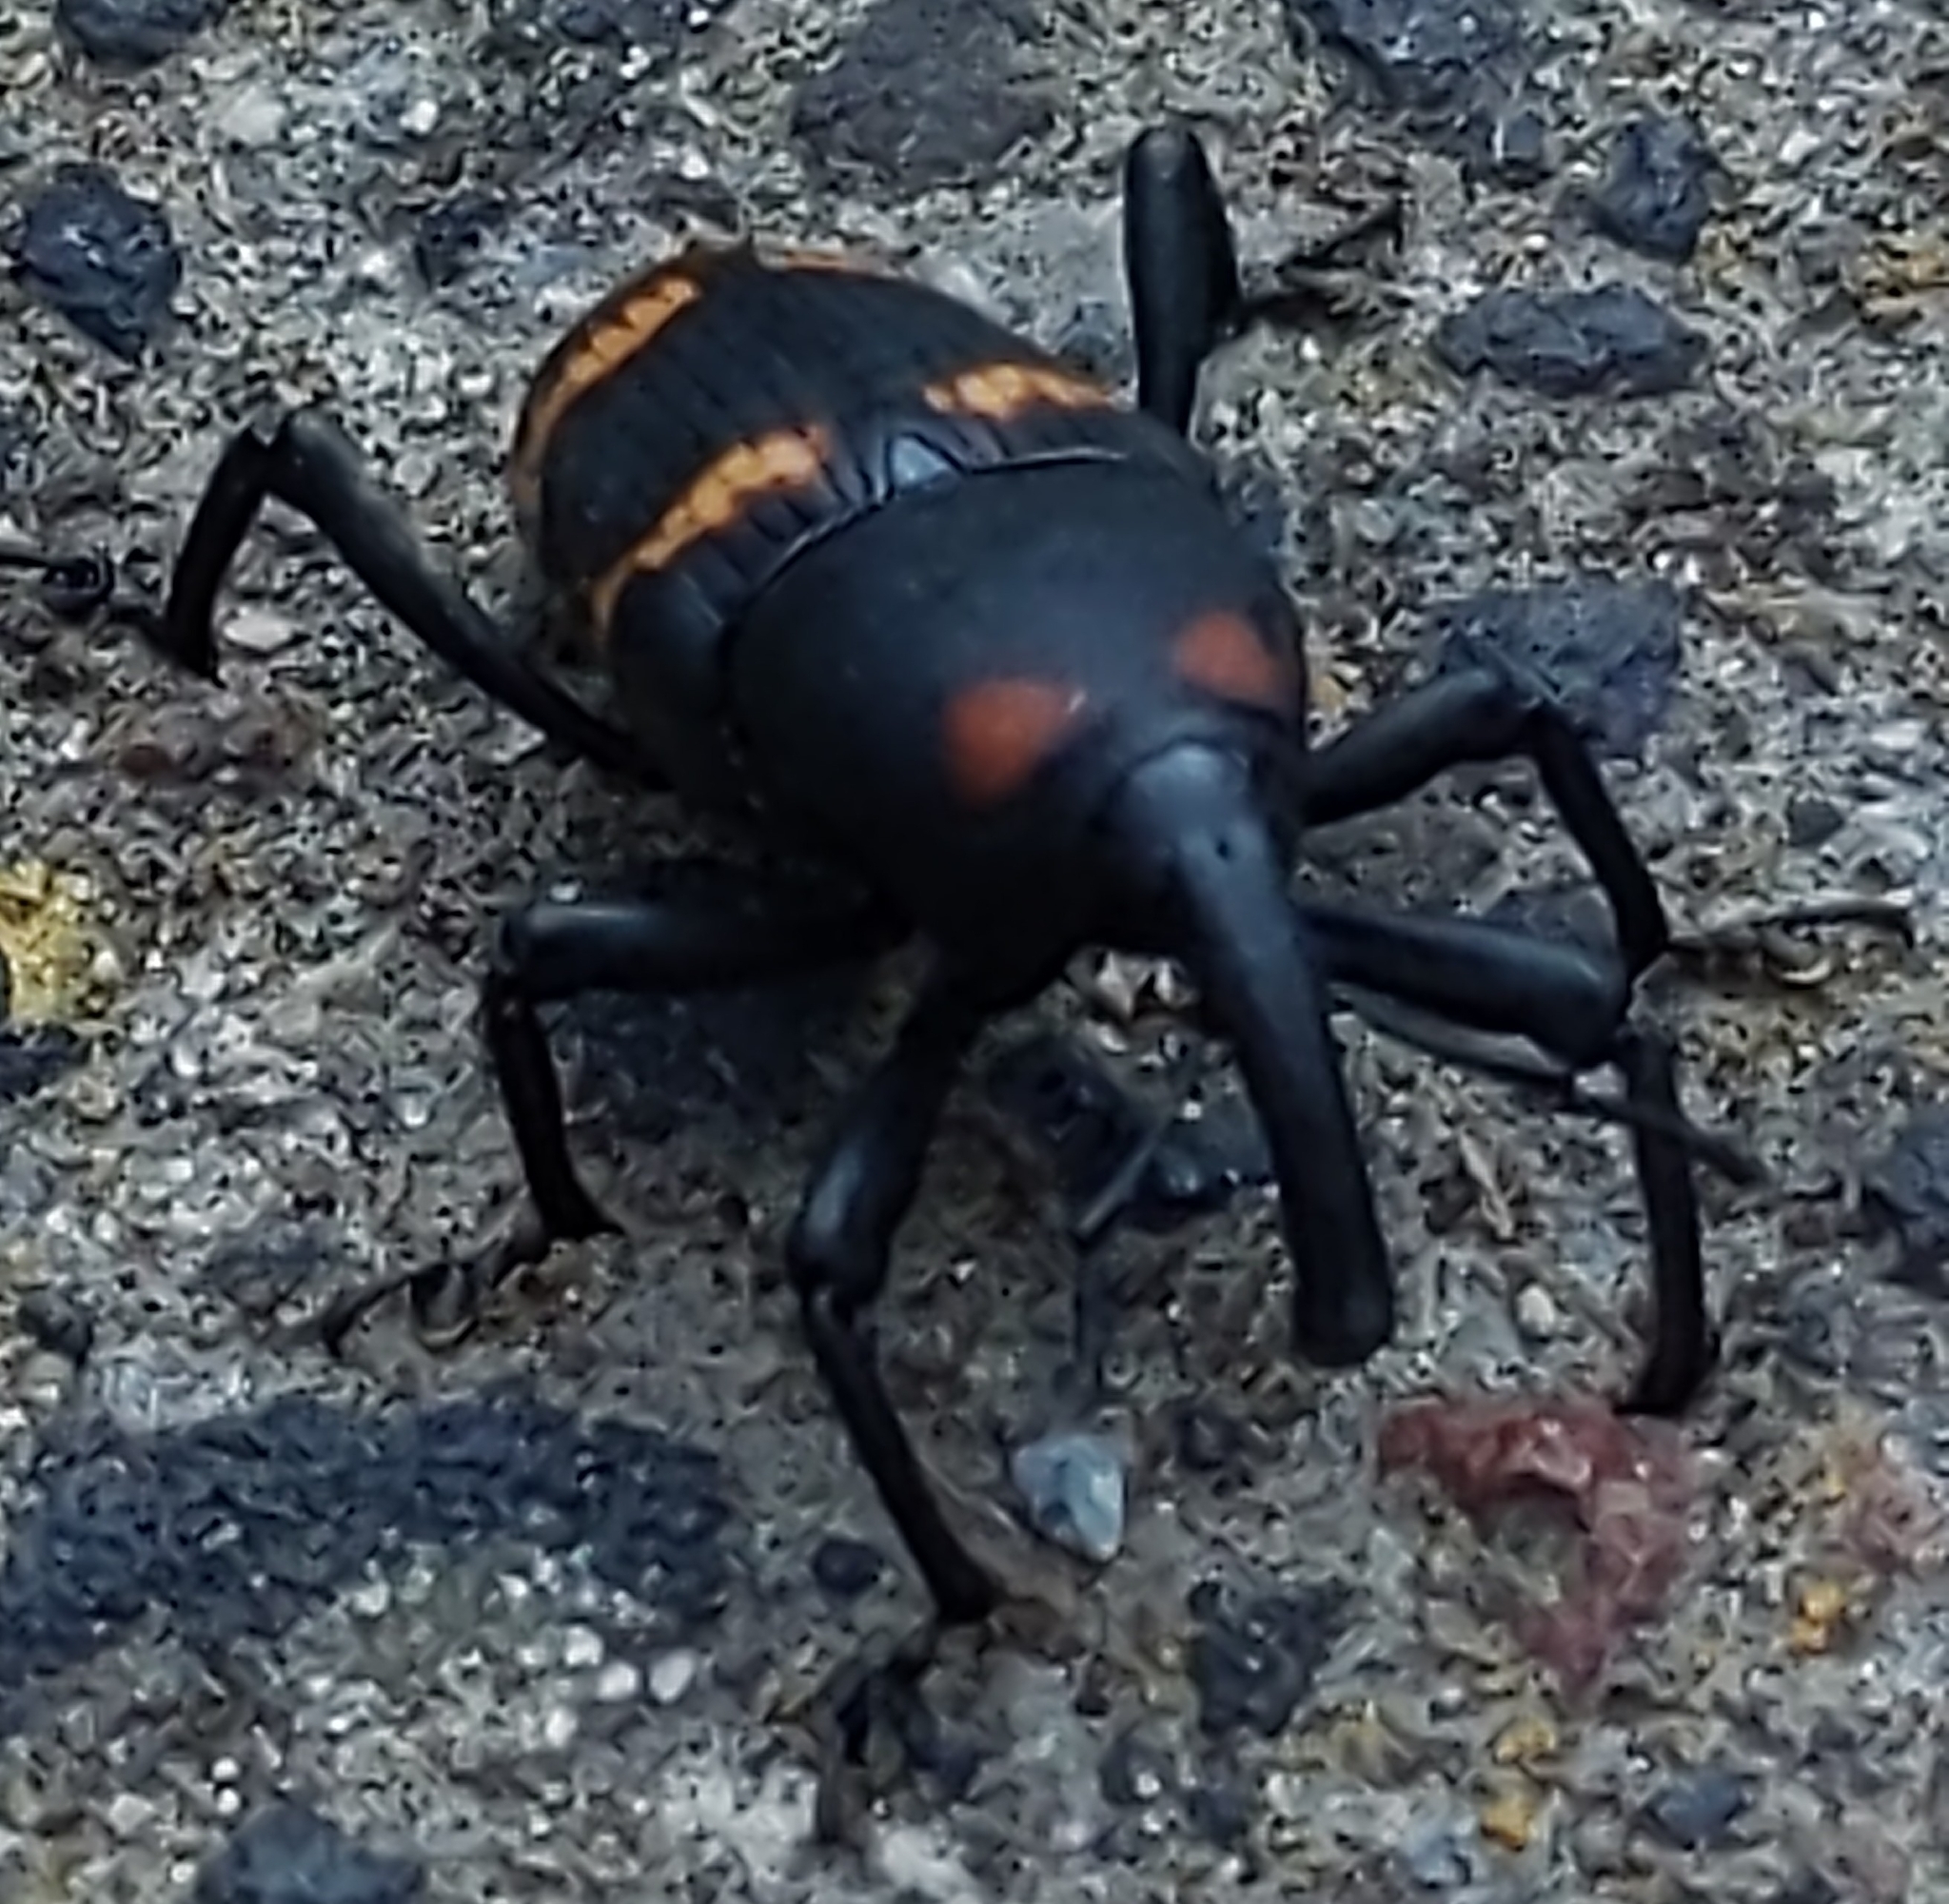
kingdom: Animalia
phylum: Arthropoda
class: Insecta
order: Coleoptera
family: Dryophthoridae
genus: Cactophagus
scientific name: Cactophagus spinolae
